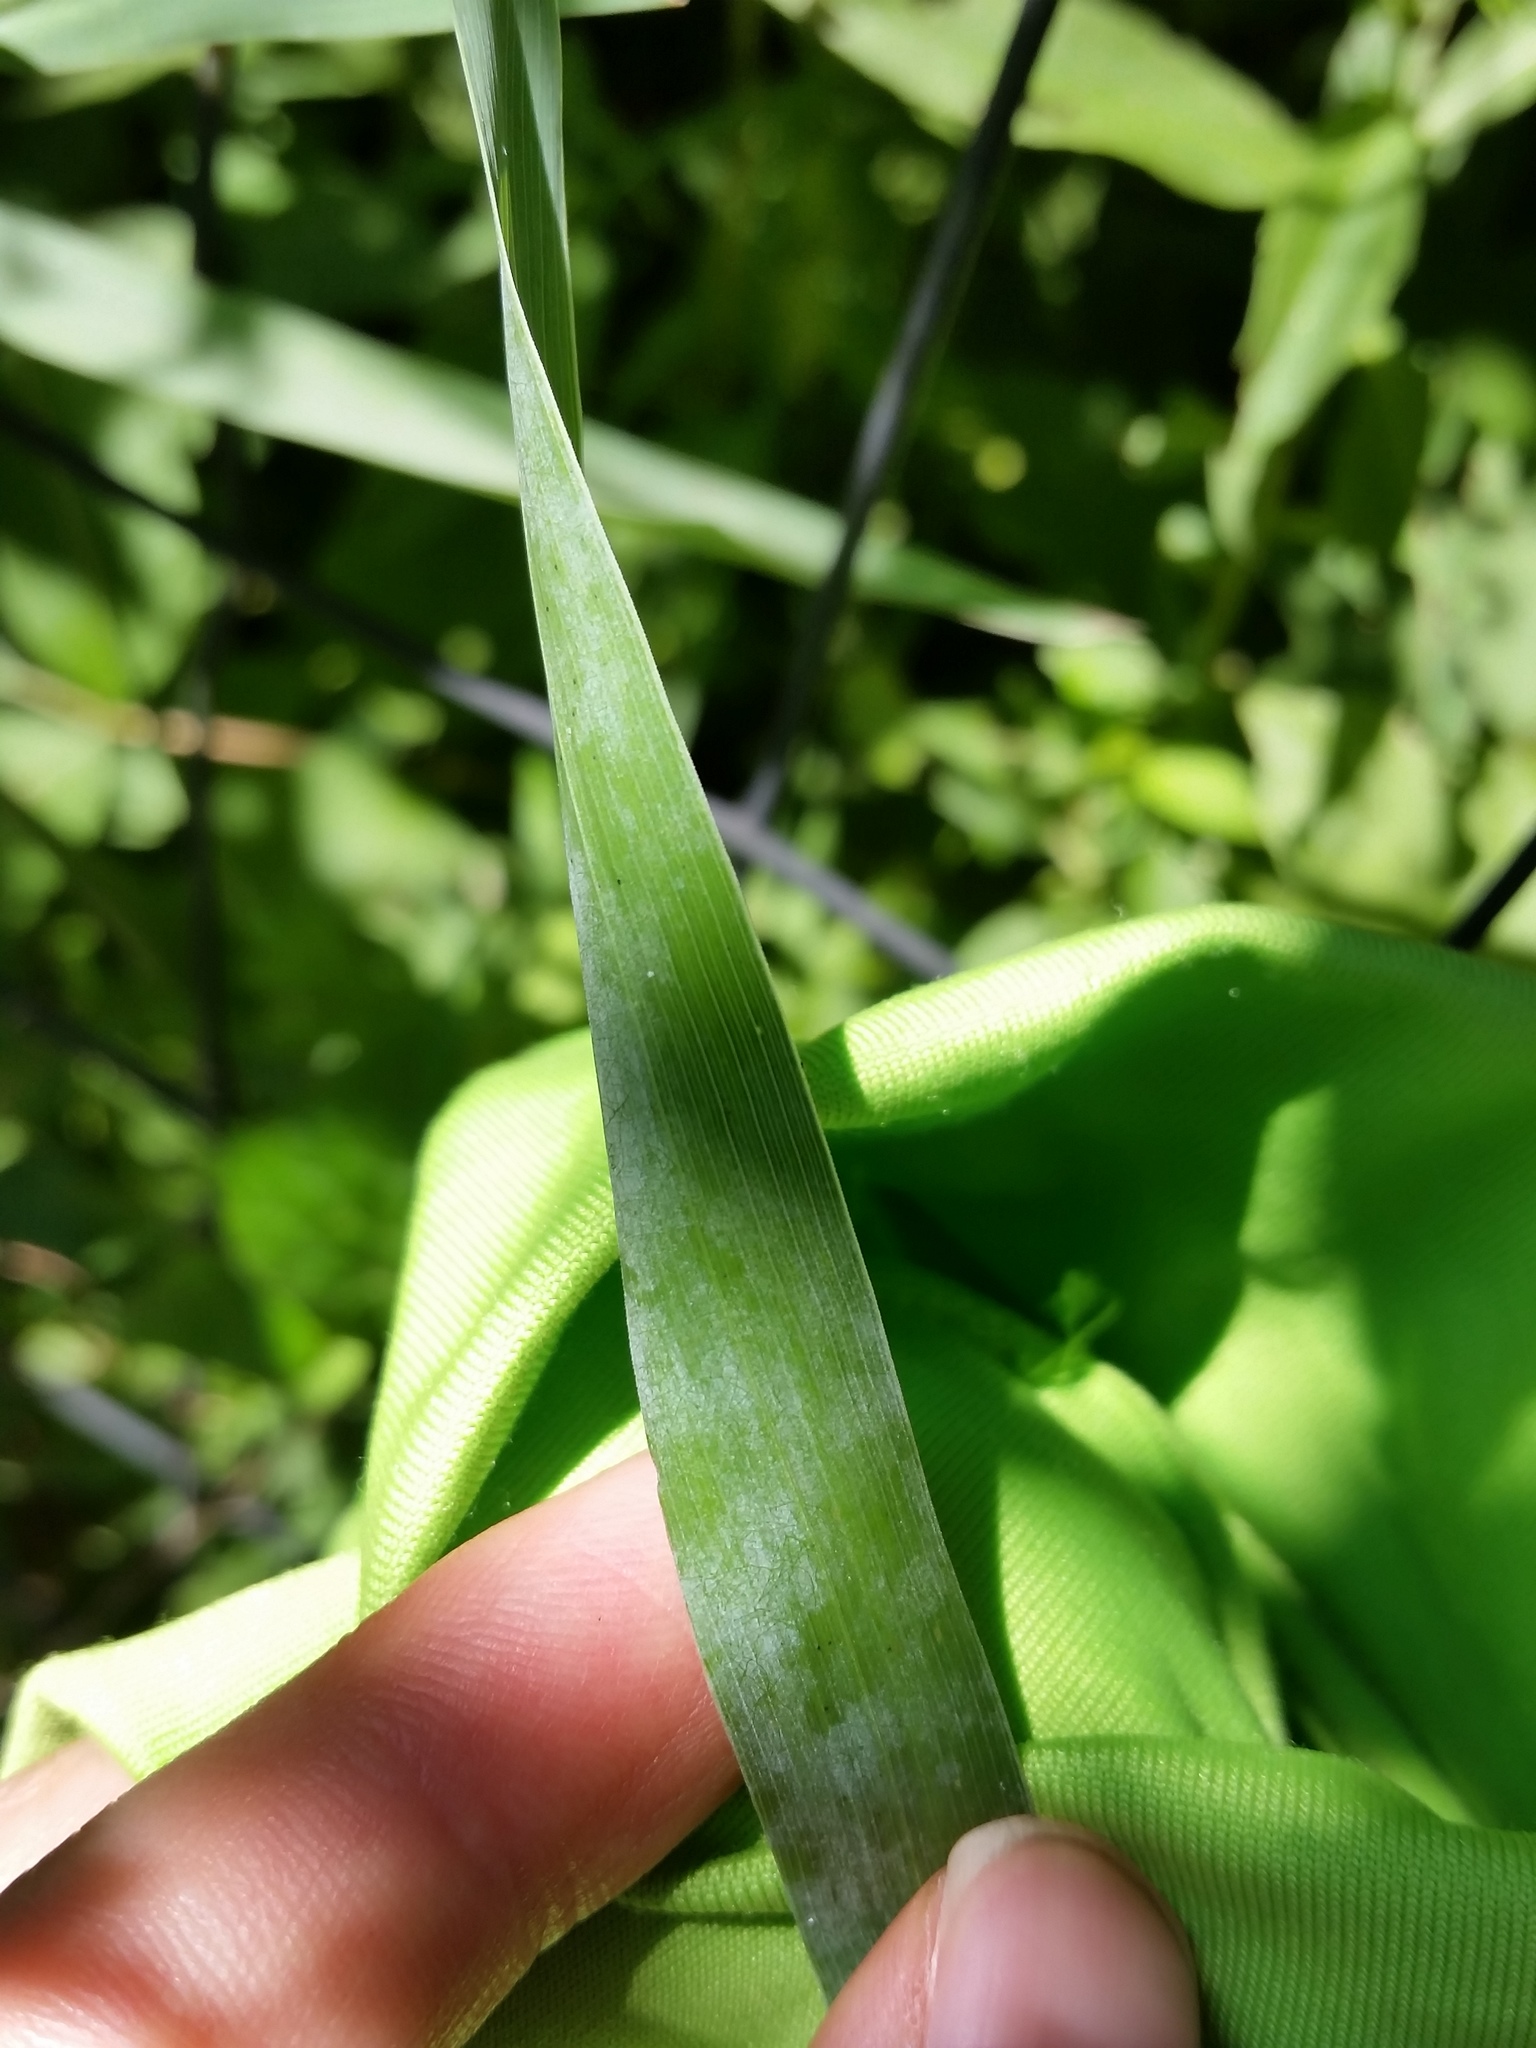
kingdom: Plantae
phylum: Tracheophyta
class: Liliopsida
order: Poales
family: Poaceae
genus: Elymus
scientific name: Elymus riparius
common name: Eastern riverbank wild rye
